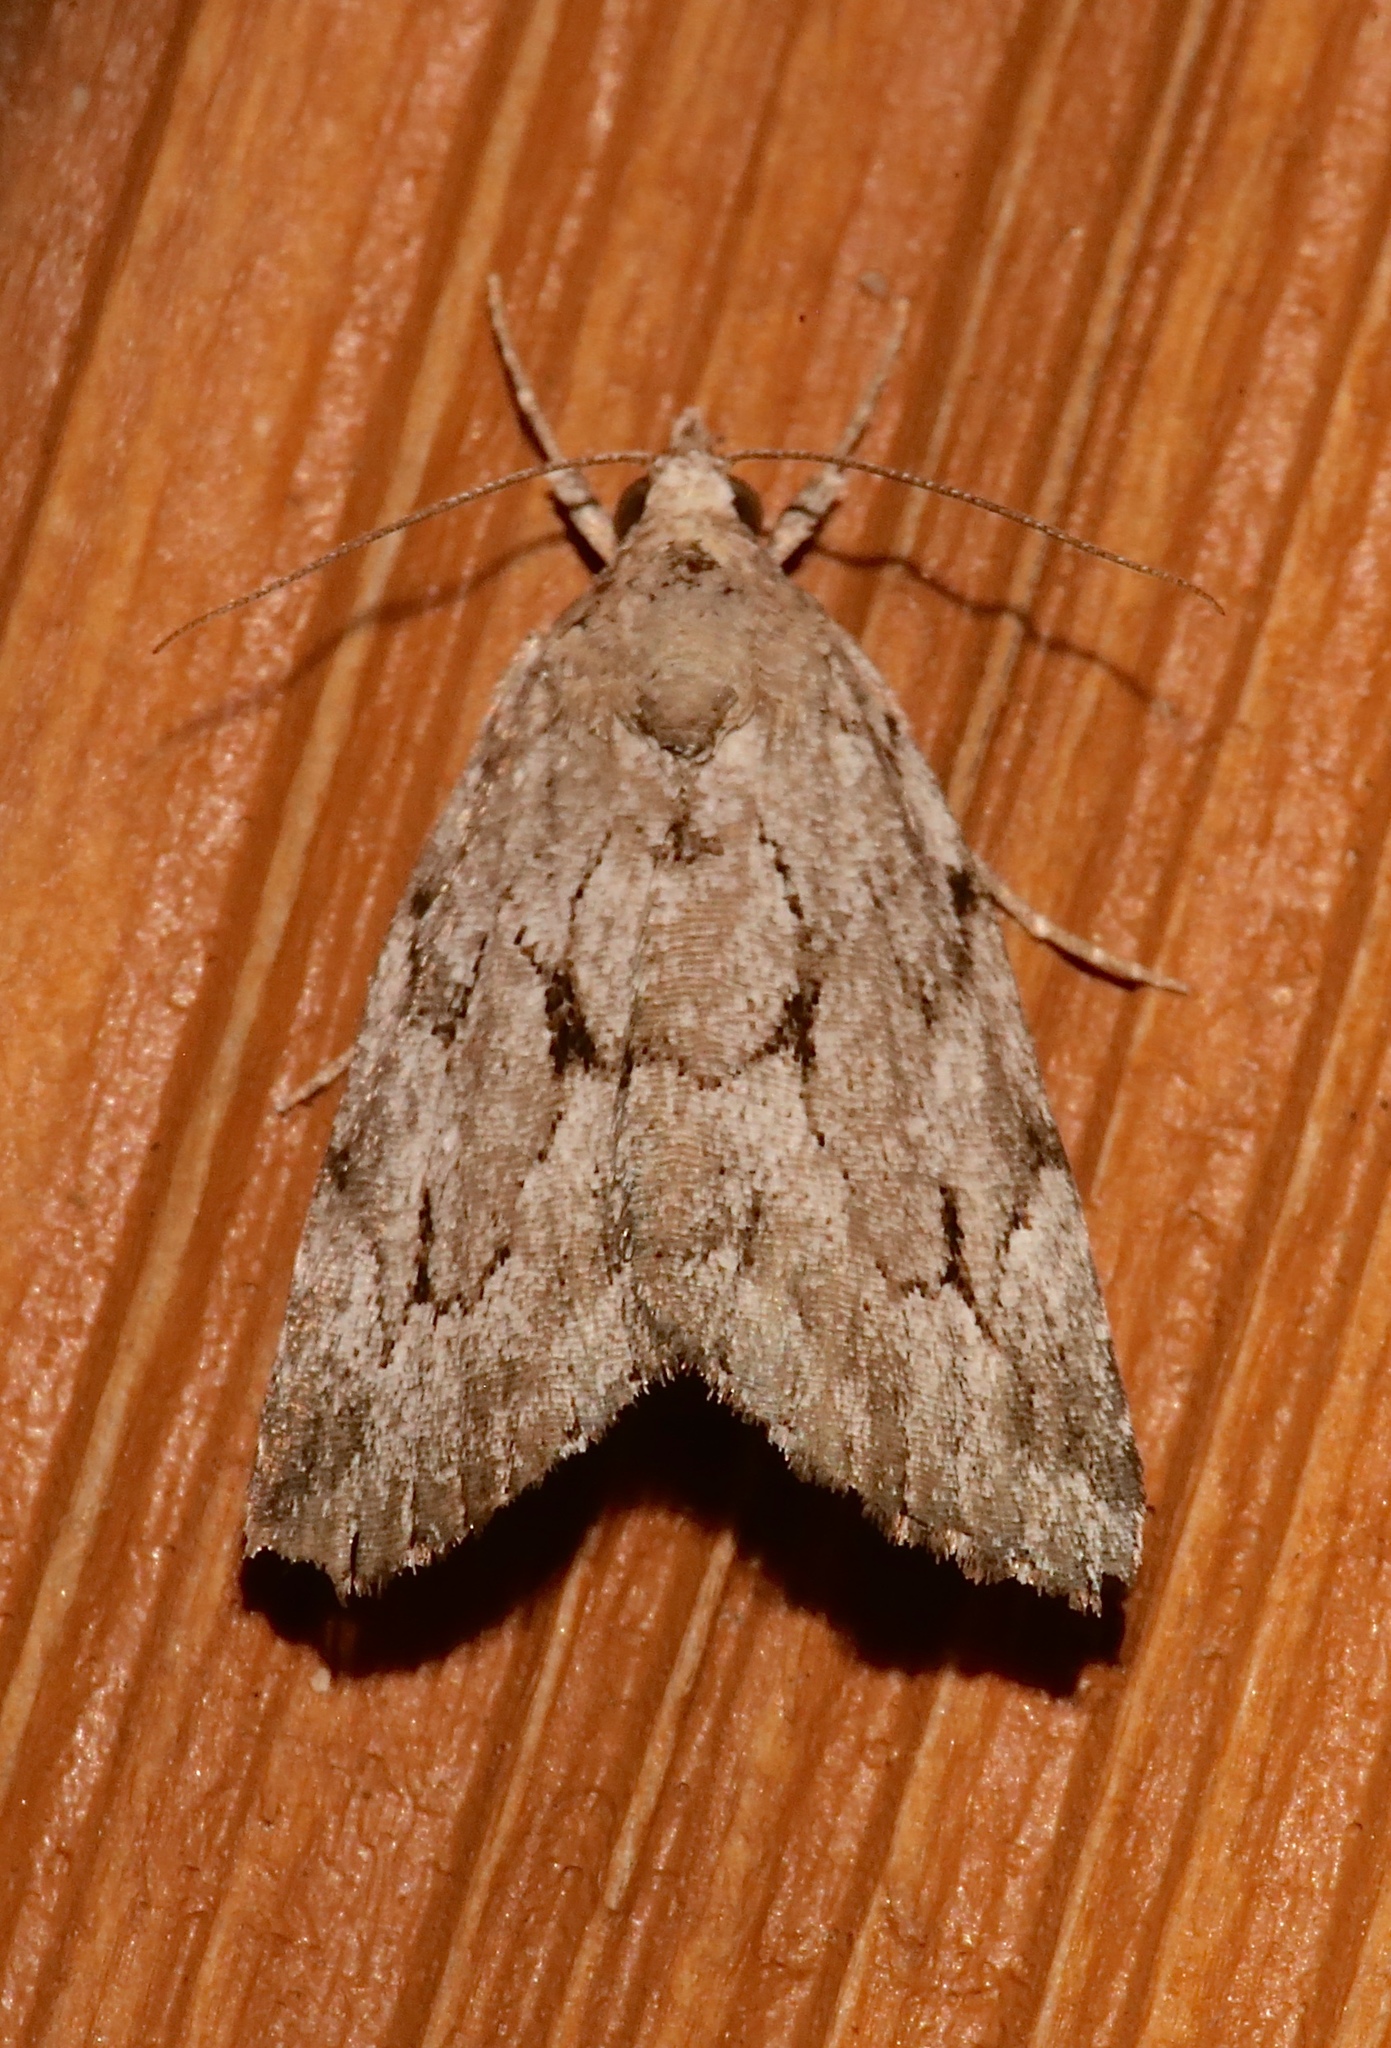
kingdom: Animalia
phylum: Arthropoda
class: Insecta
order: Lepidoptera
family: Erebidae
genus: Cutina
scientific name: Cutina albopunctella
